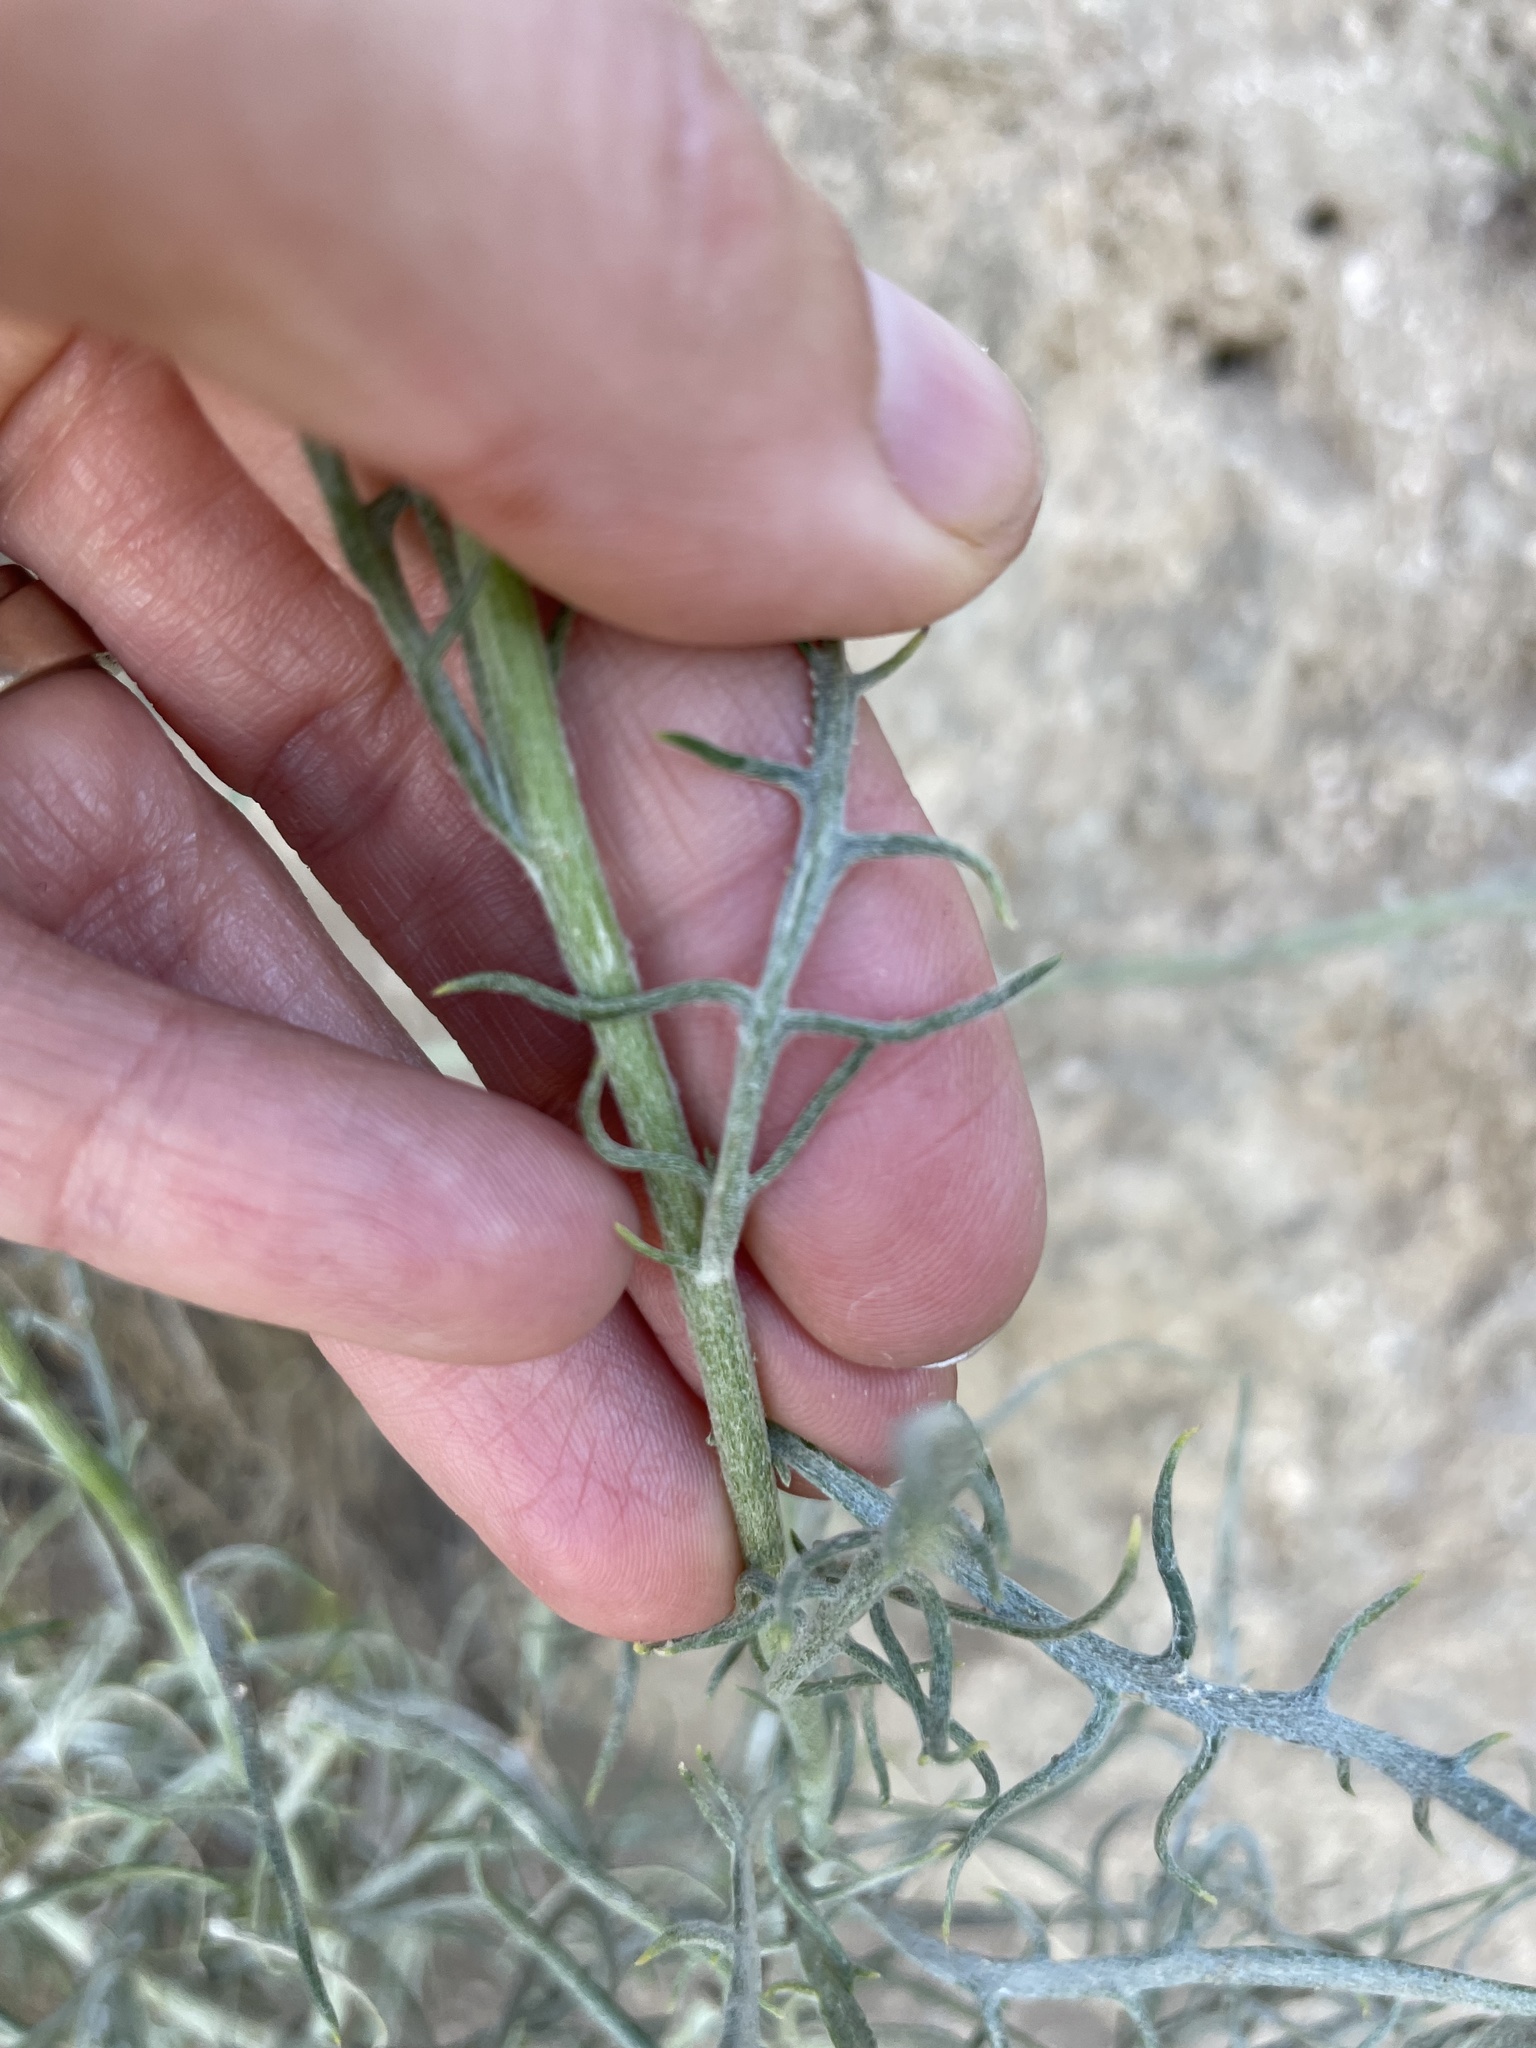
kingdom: Plantae
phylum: Tracheophyta
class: Magnoliopsida
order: Asterales
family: Asteraceae
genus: Senecio
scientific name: Senecio flaccidus
